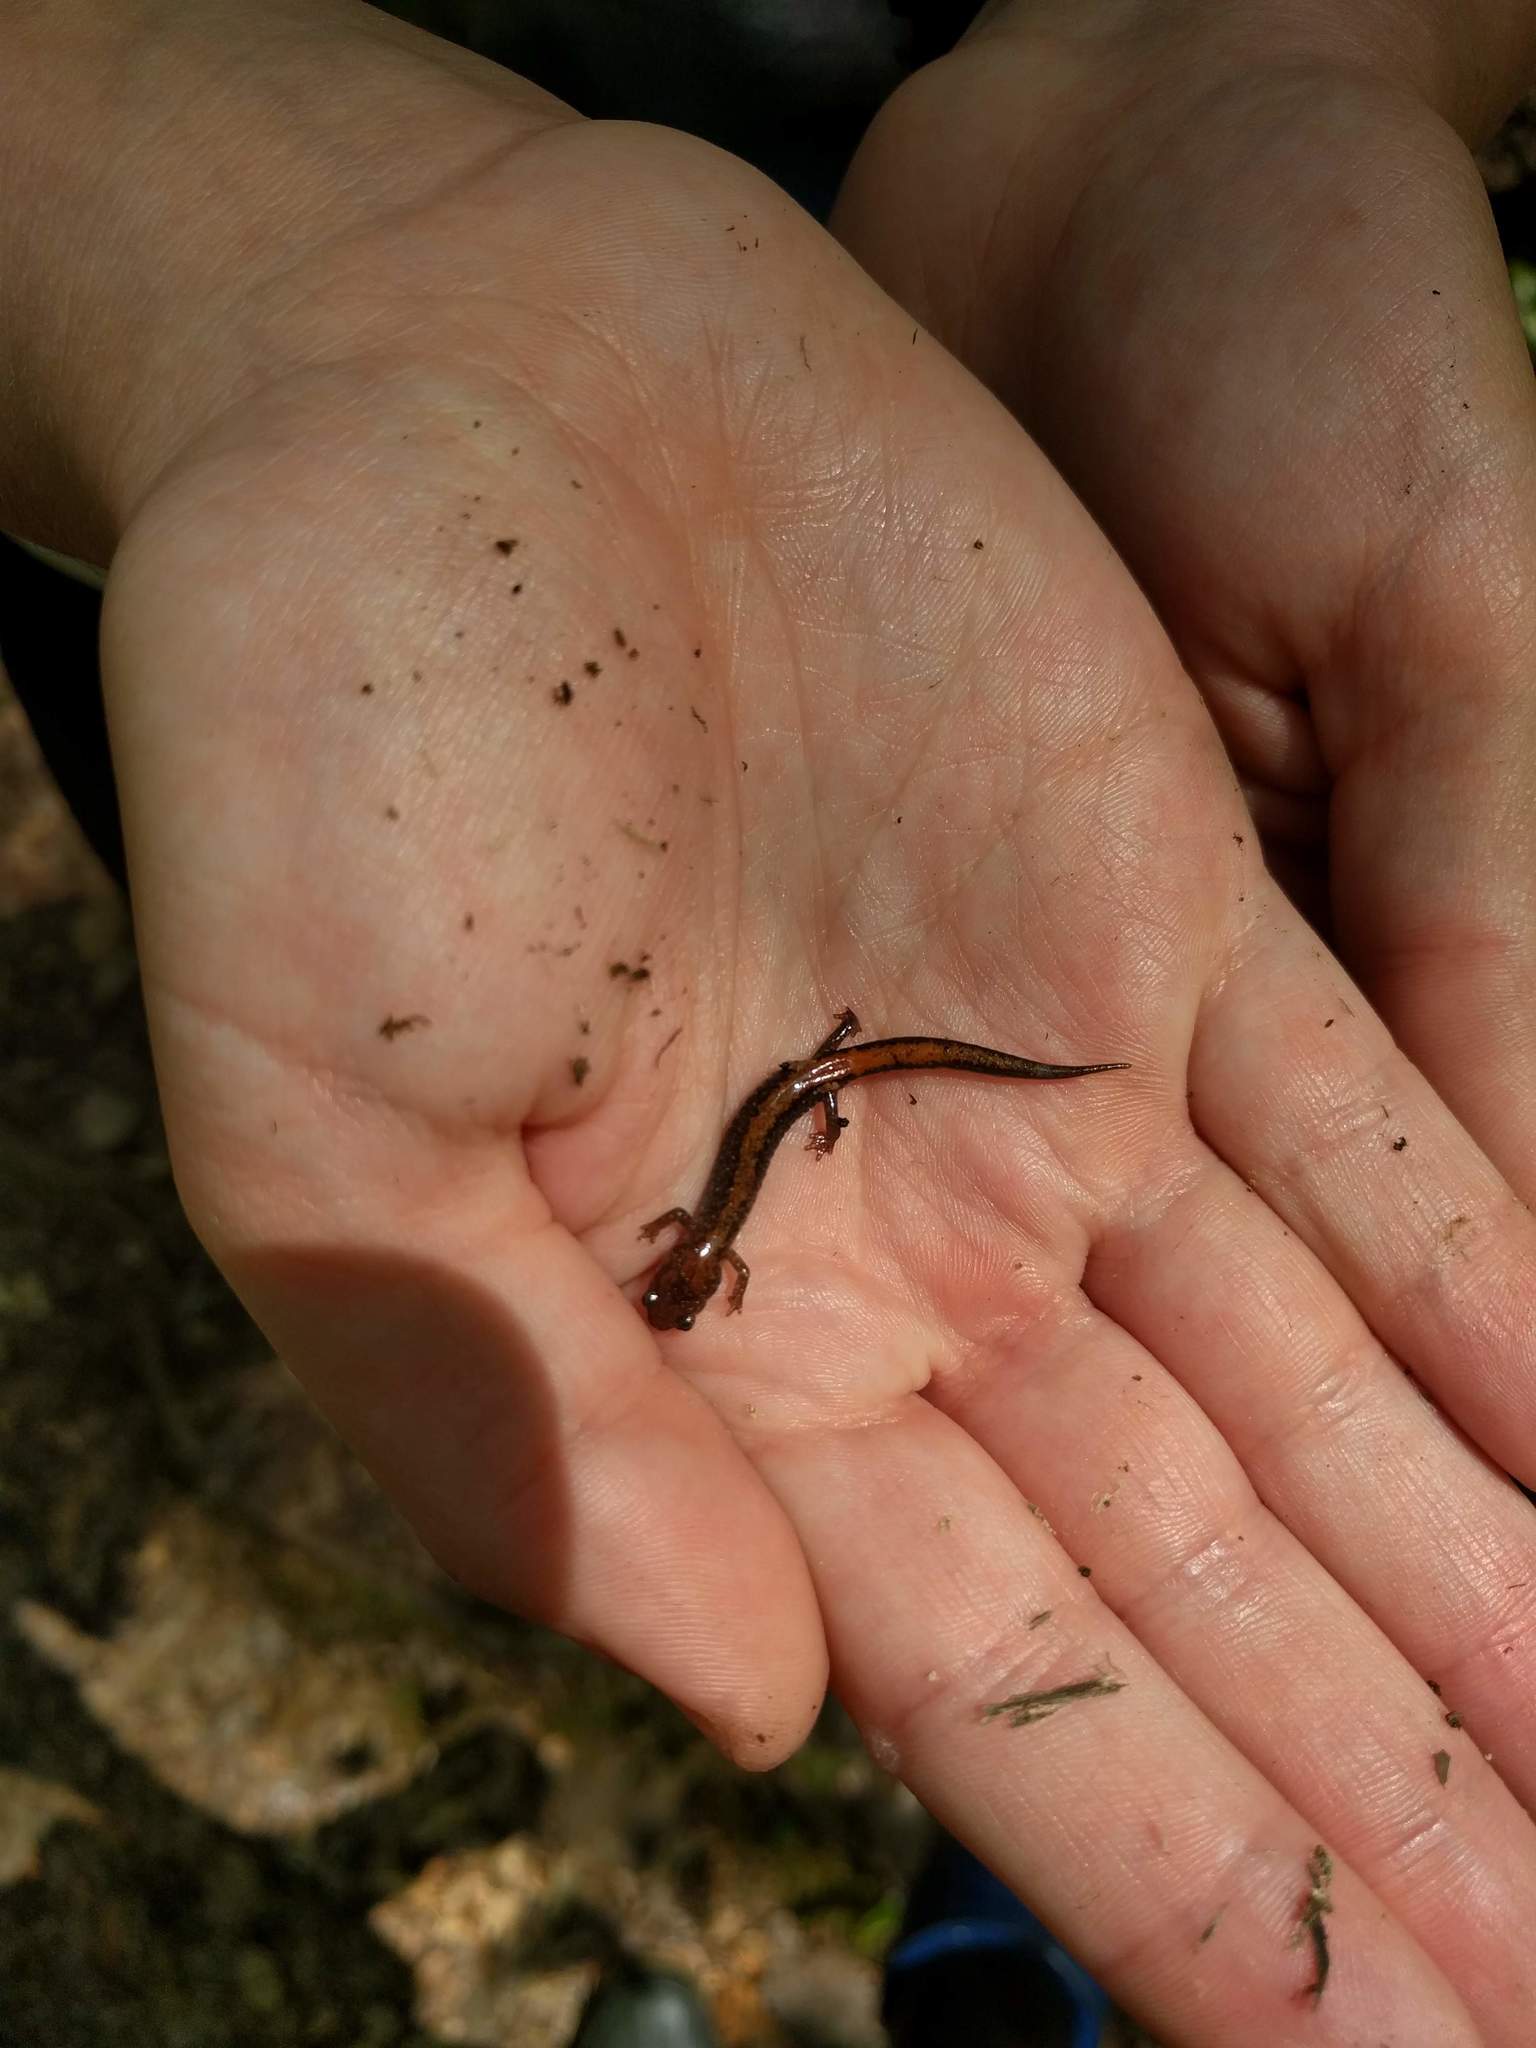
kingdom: Animalia
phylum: Chordata
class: Amphibia
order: Caudata
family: Plethodontidae
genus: Plethodon
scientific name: Plethodon cinereus
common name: Redback salamander
